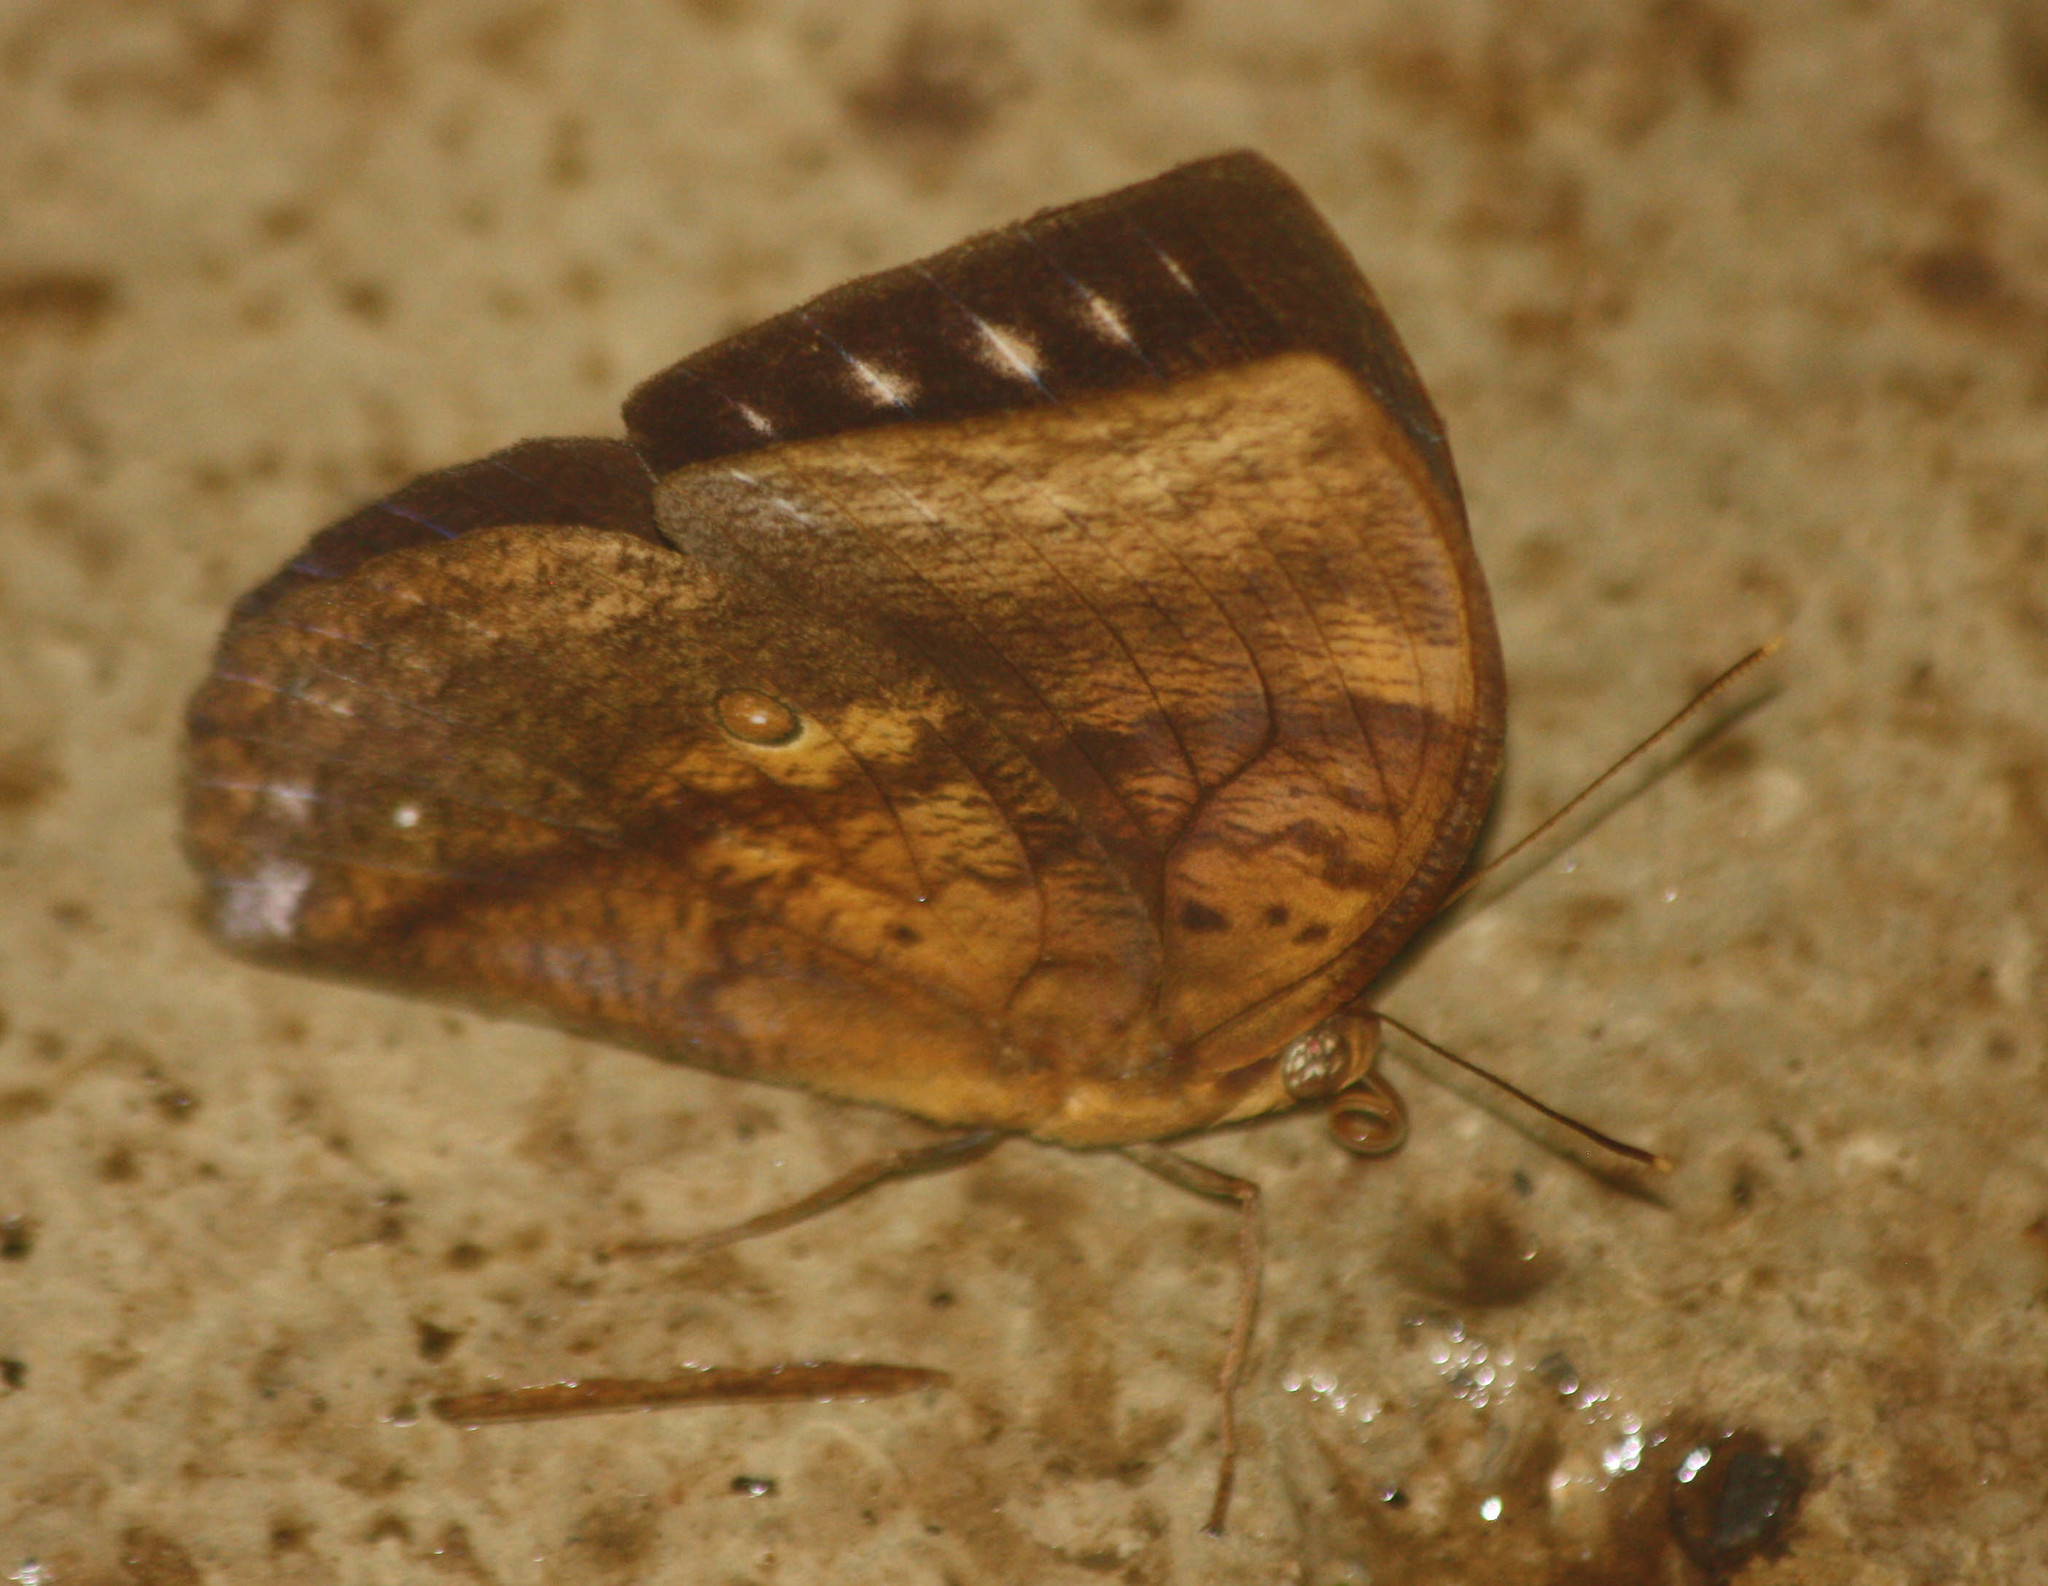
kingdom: Animalia
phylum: Arthropoda
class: Insecta
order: Lepidoptera
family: Nymphalidae
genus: Discophora
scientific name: Discophora timora
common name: Great duffer
